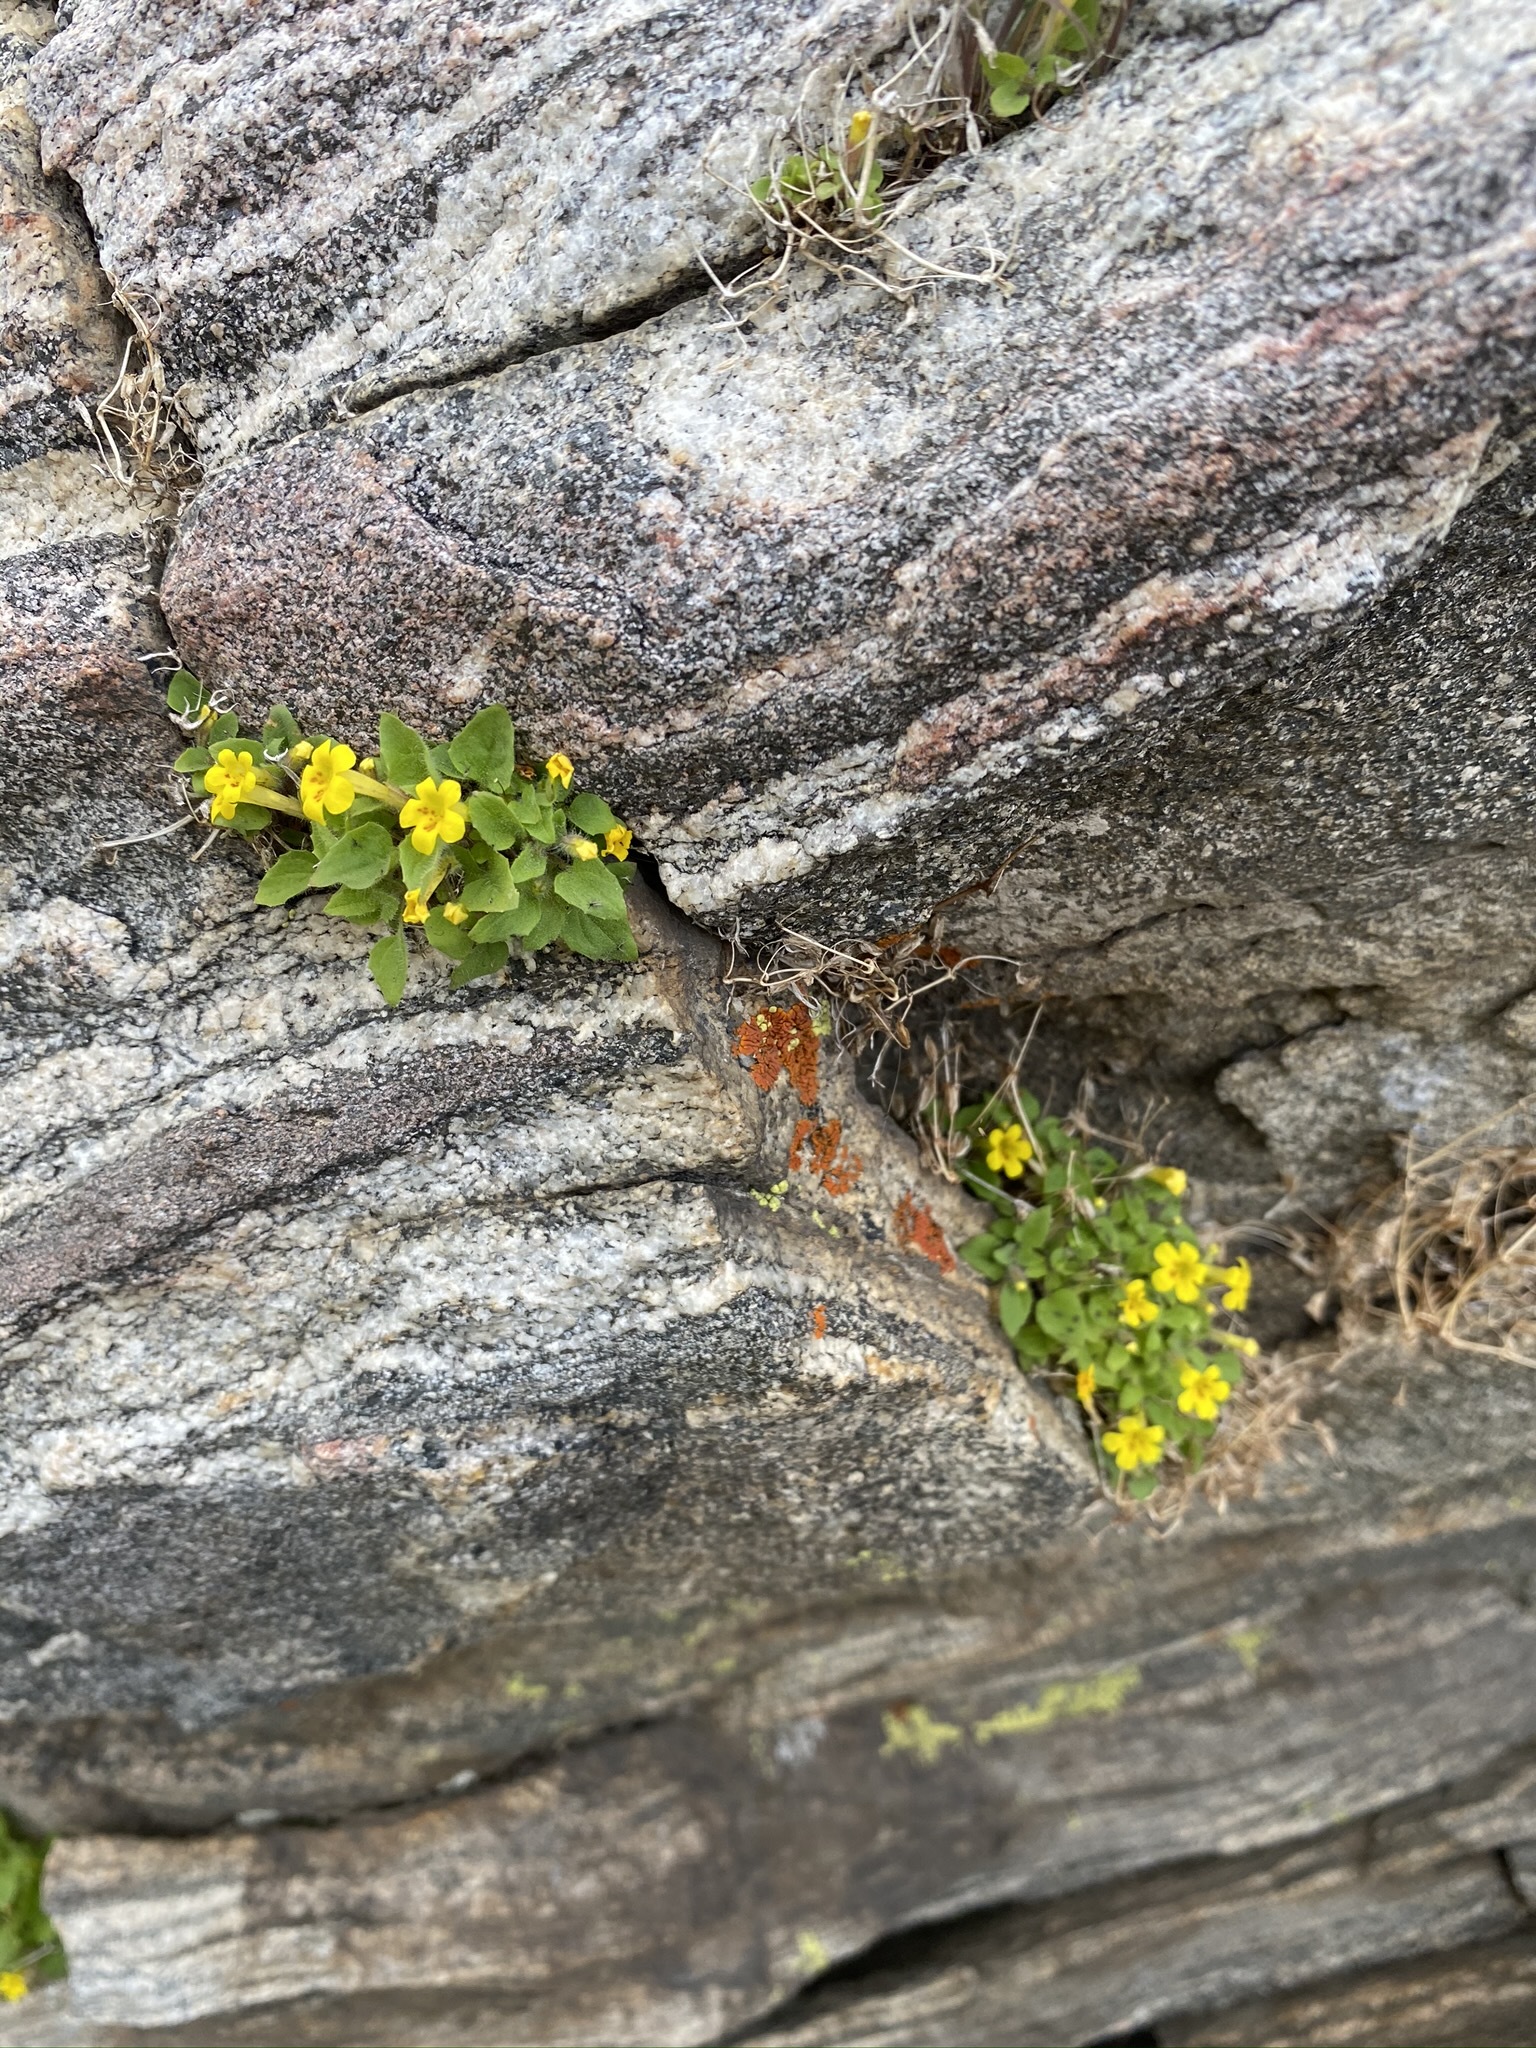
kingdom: Plantae
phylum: Tracheophyta
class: Magnoliopsida
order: Lamiales
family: Phrymaceae
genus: Erythranthe
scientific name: Erythranthe geniculata
